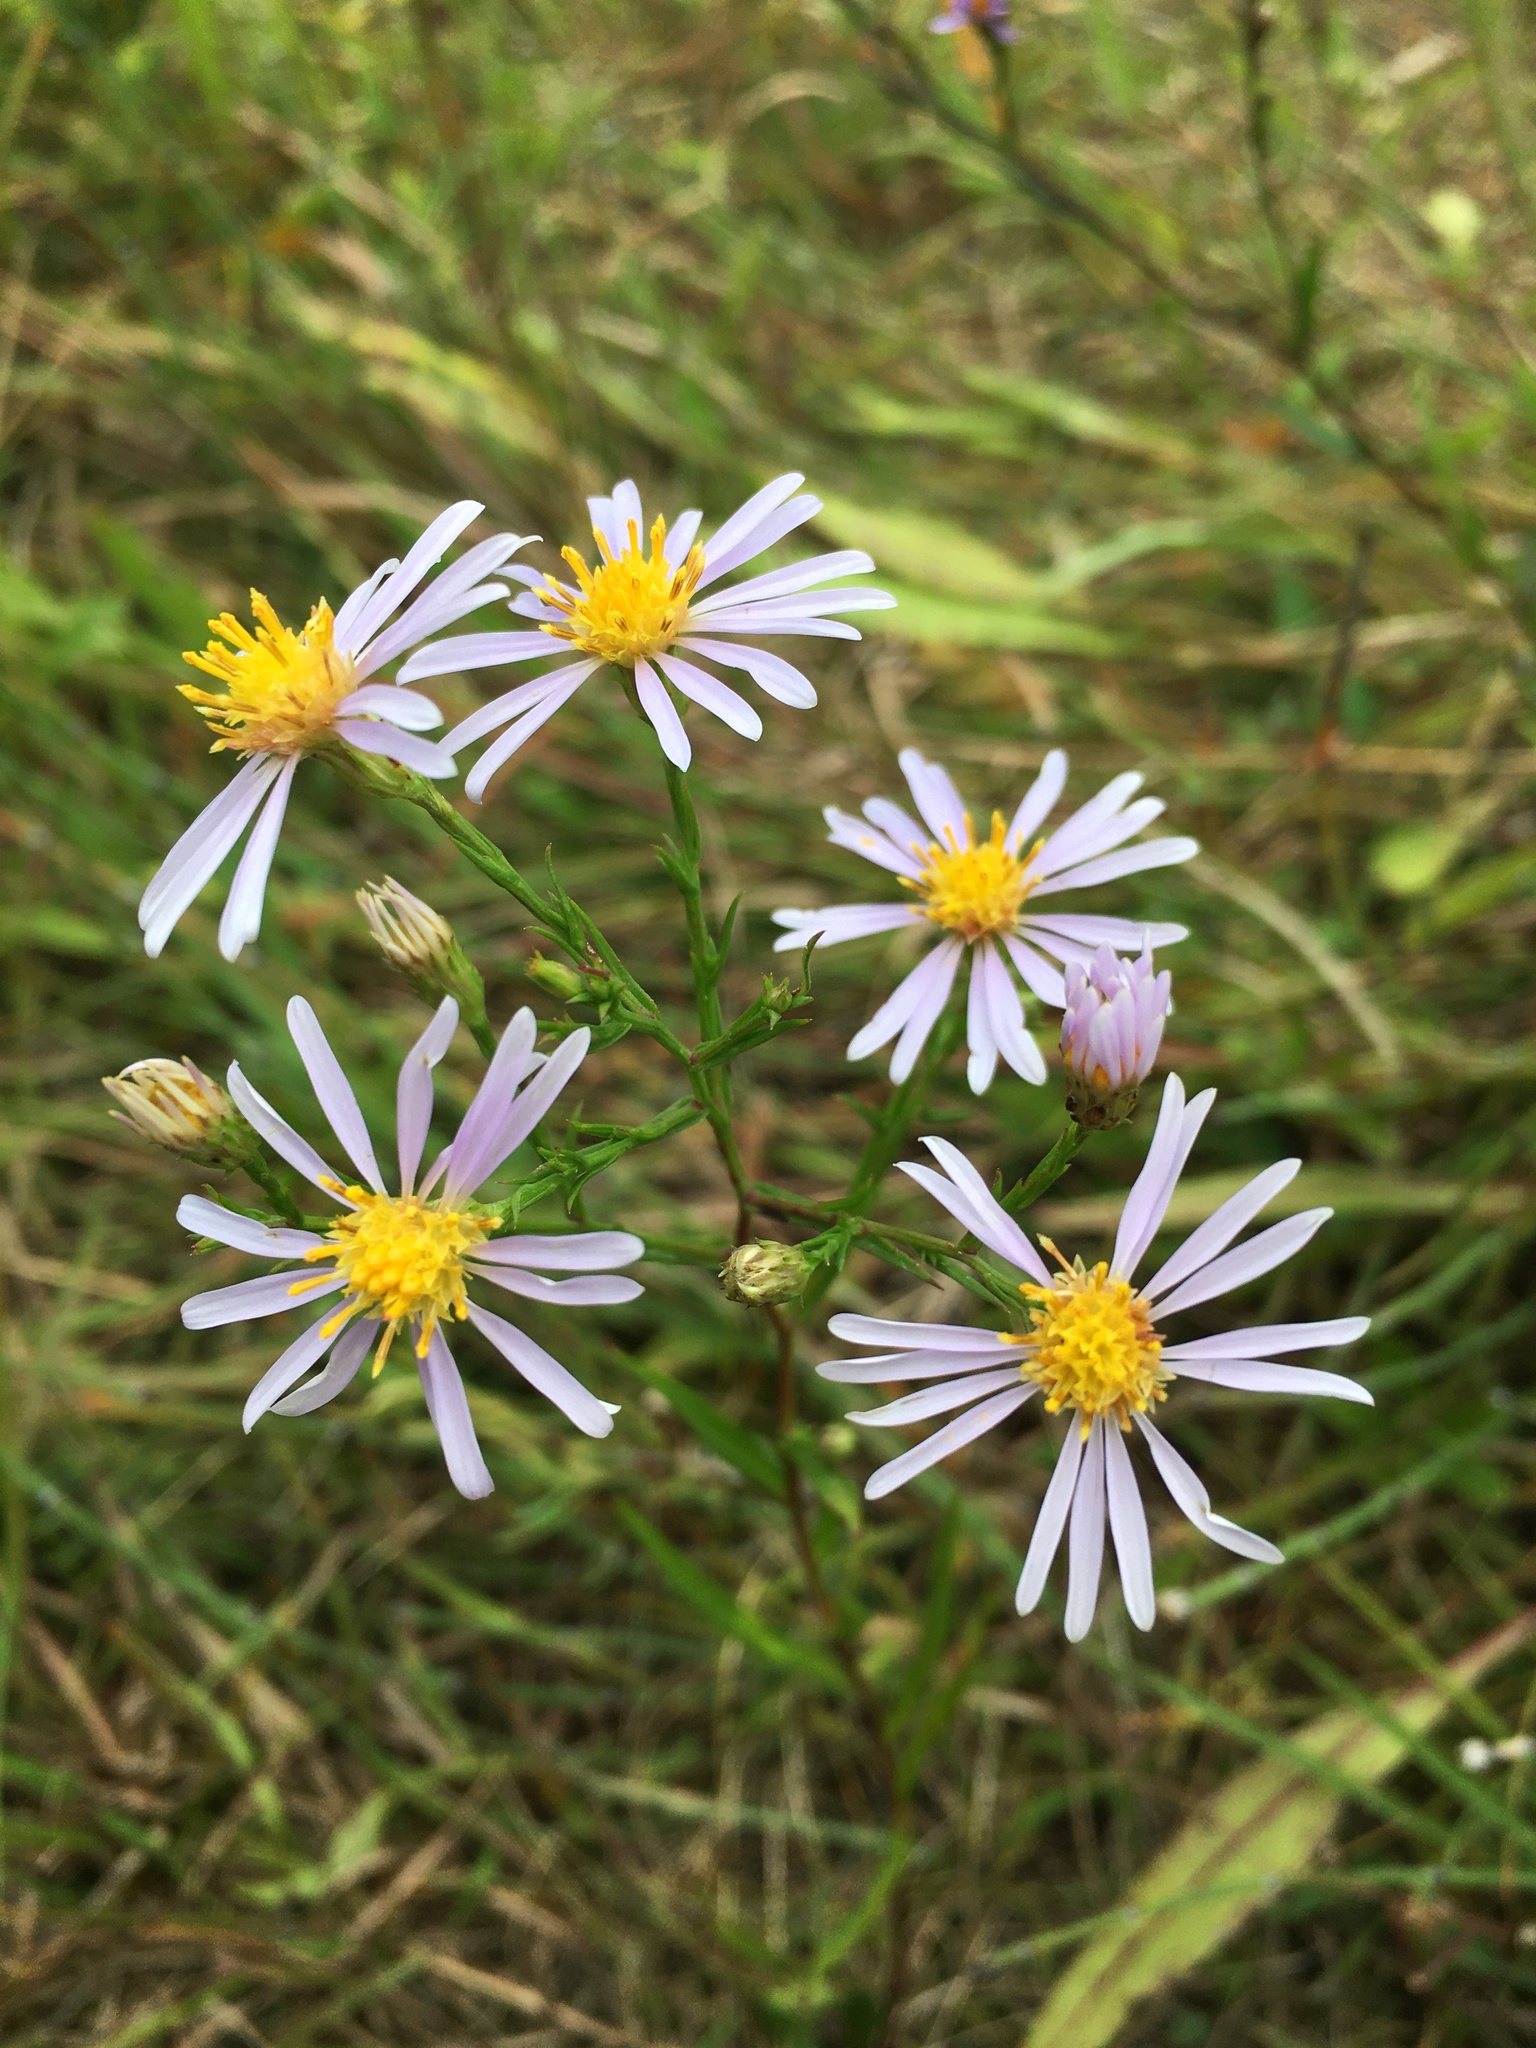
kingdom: Plantae
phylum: Tracheophyta
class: Magnoliopsida
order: Asterales
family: Asteraceae
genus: Symphyotrichum
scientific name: Symphyotrichum laeve
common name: Glaucous aster
